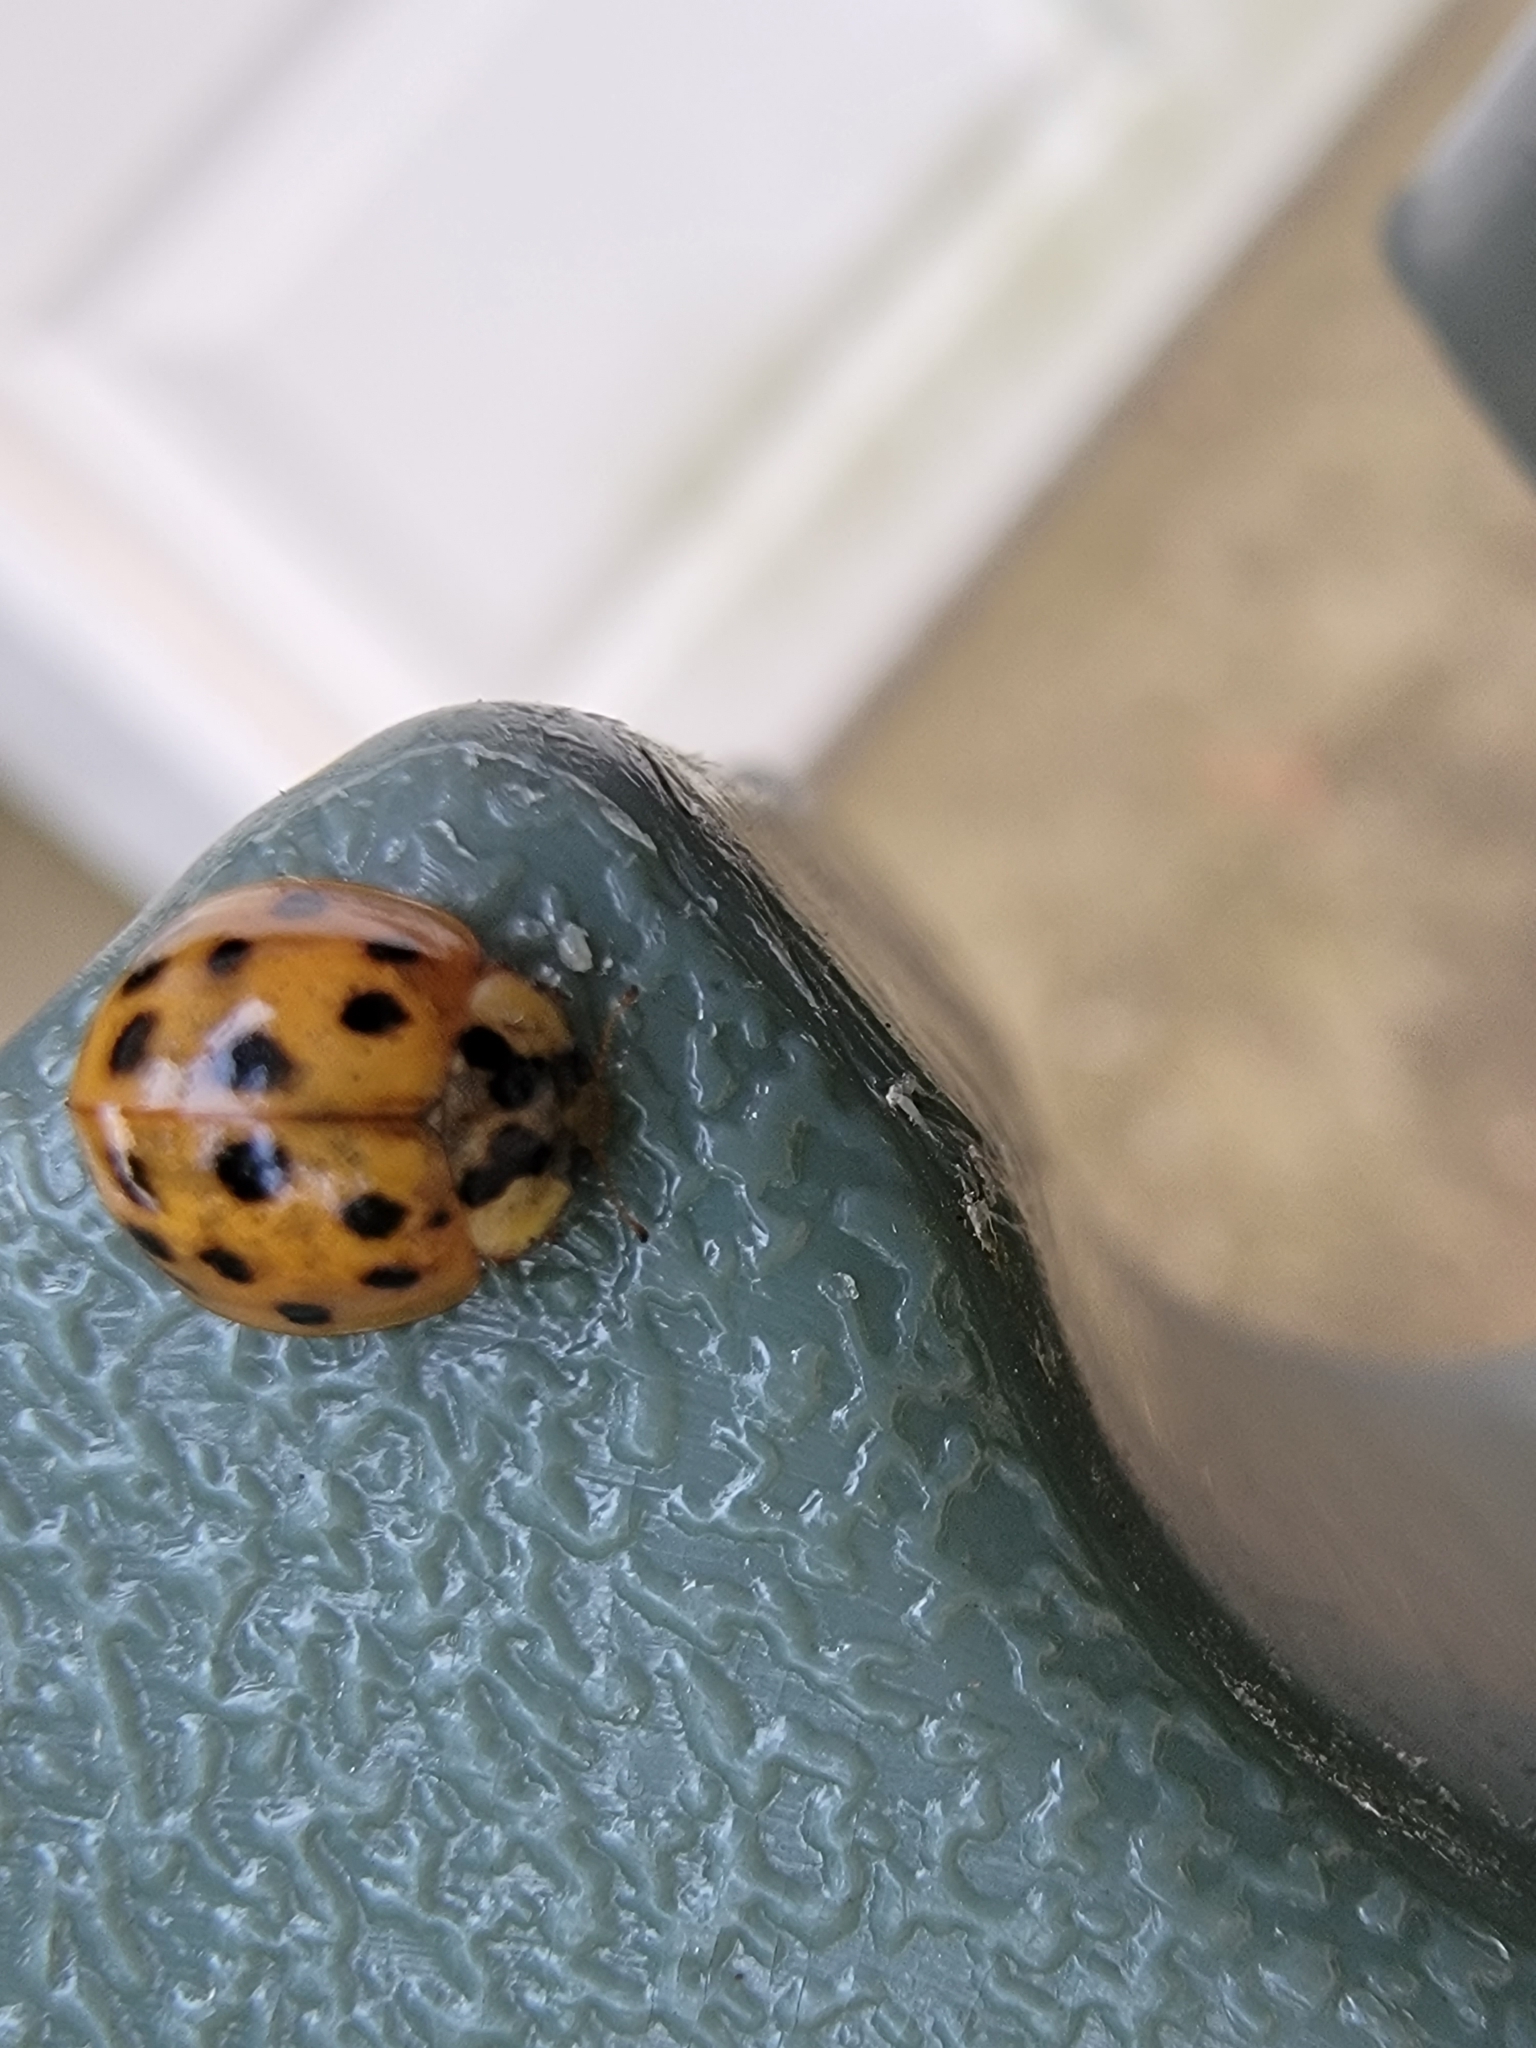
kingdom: Animalia
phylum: Arthropoda
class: Insecta
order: Coleoptera
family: Coccinellidae
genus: Harmonia
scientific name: Harmonia axyridis
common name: Harlequin ladybird
